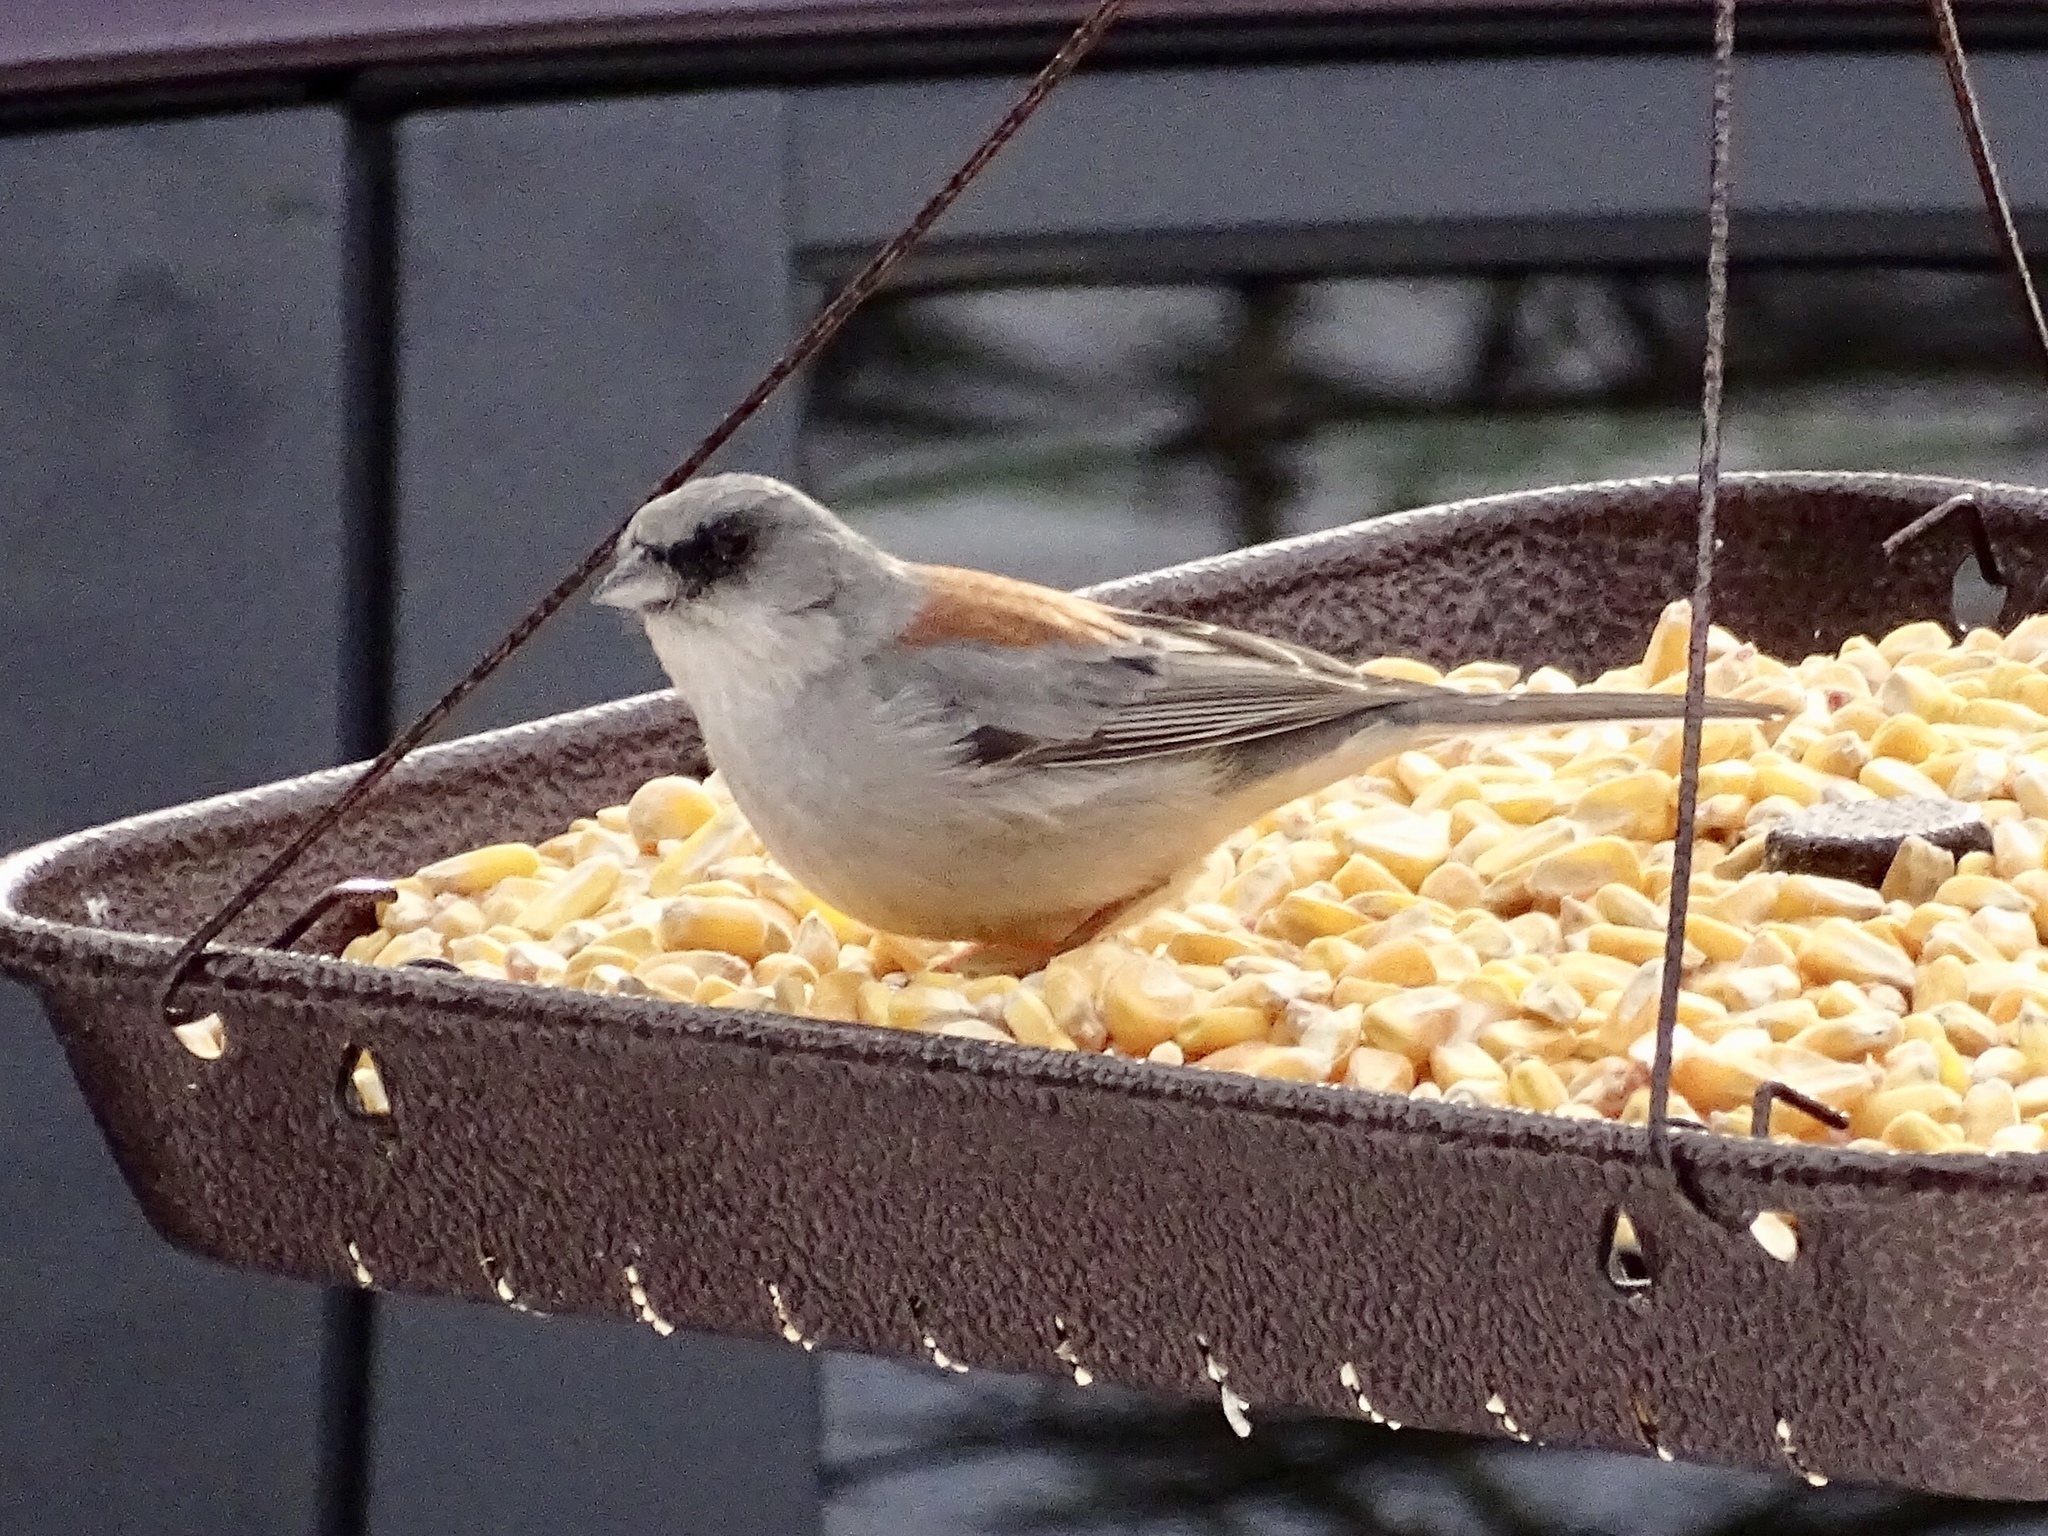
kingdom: Animalia
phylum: Chordata
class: Aves
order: Passeriformes
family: Passerellidae
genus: Junco
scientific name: Junco hyemalis
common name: Dark-eyed junco
